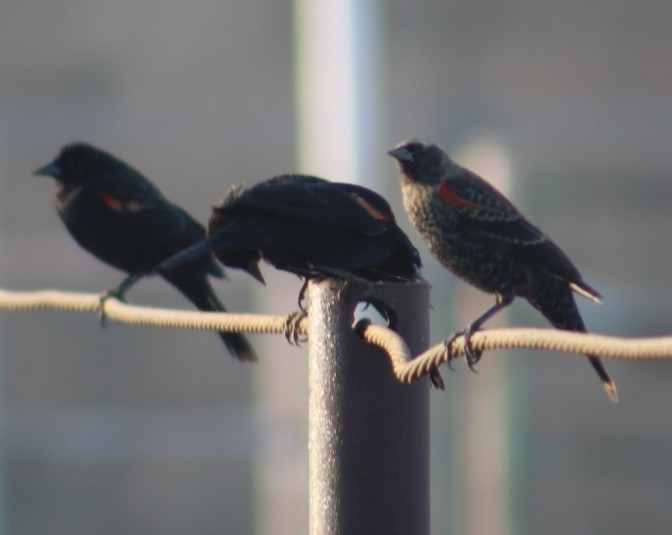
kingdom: Animalia
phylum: Chordata
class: Aves
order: Passeriformes
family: Icteridae
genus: Agelaius
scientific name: Agelaius phoeniceus
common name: Red-winged blackbird
